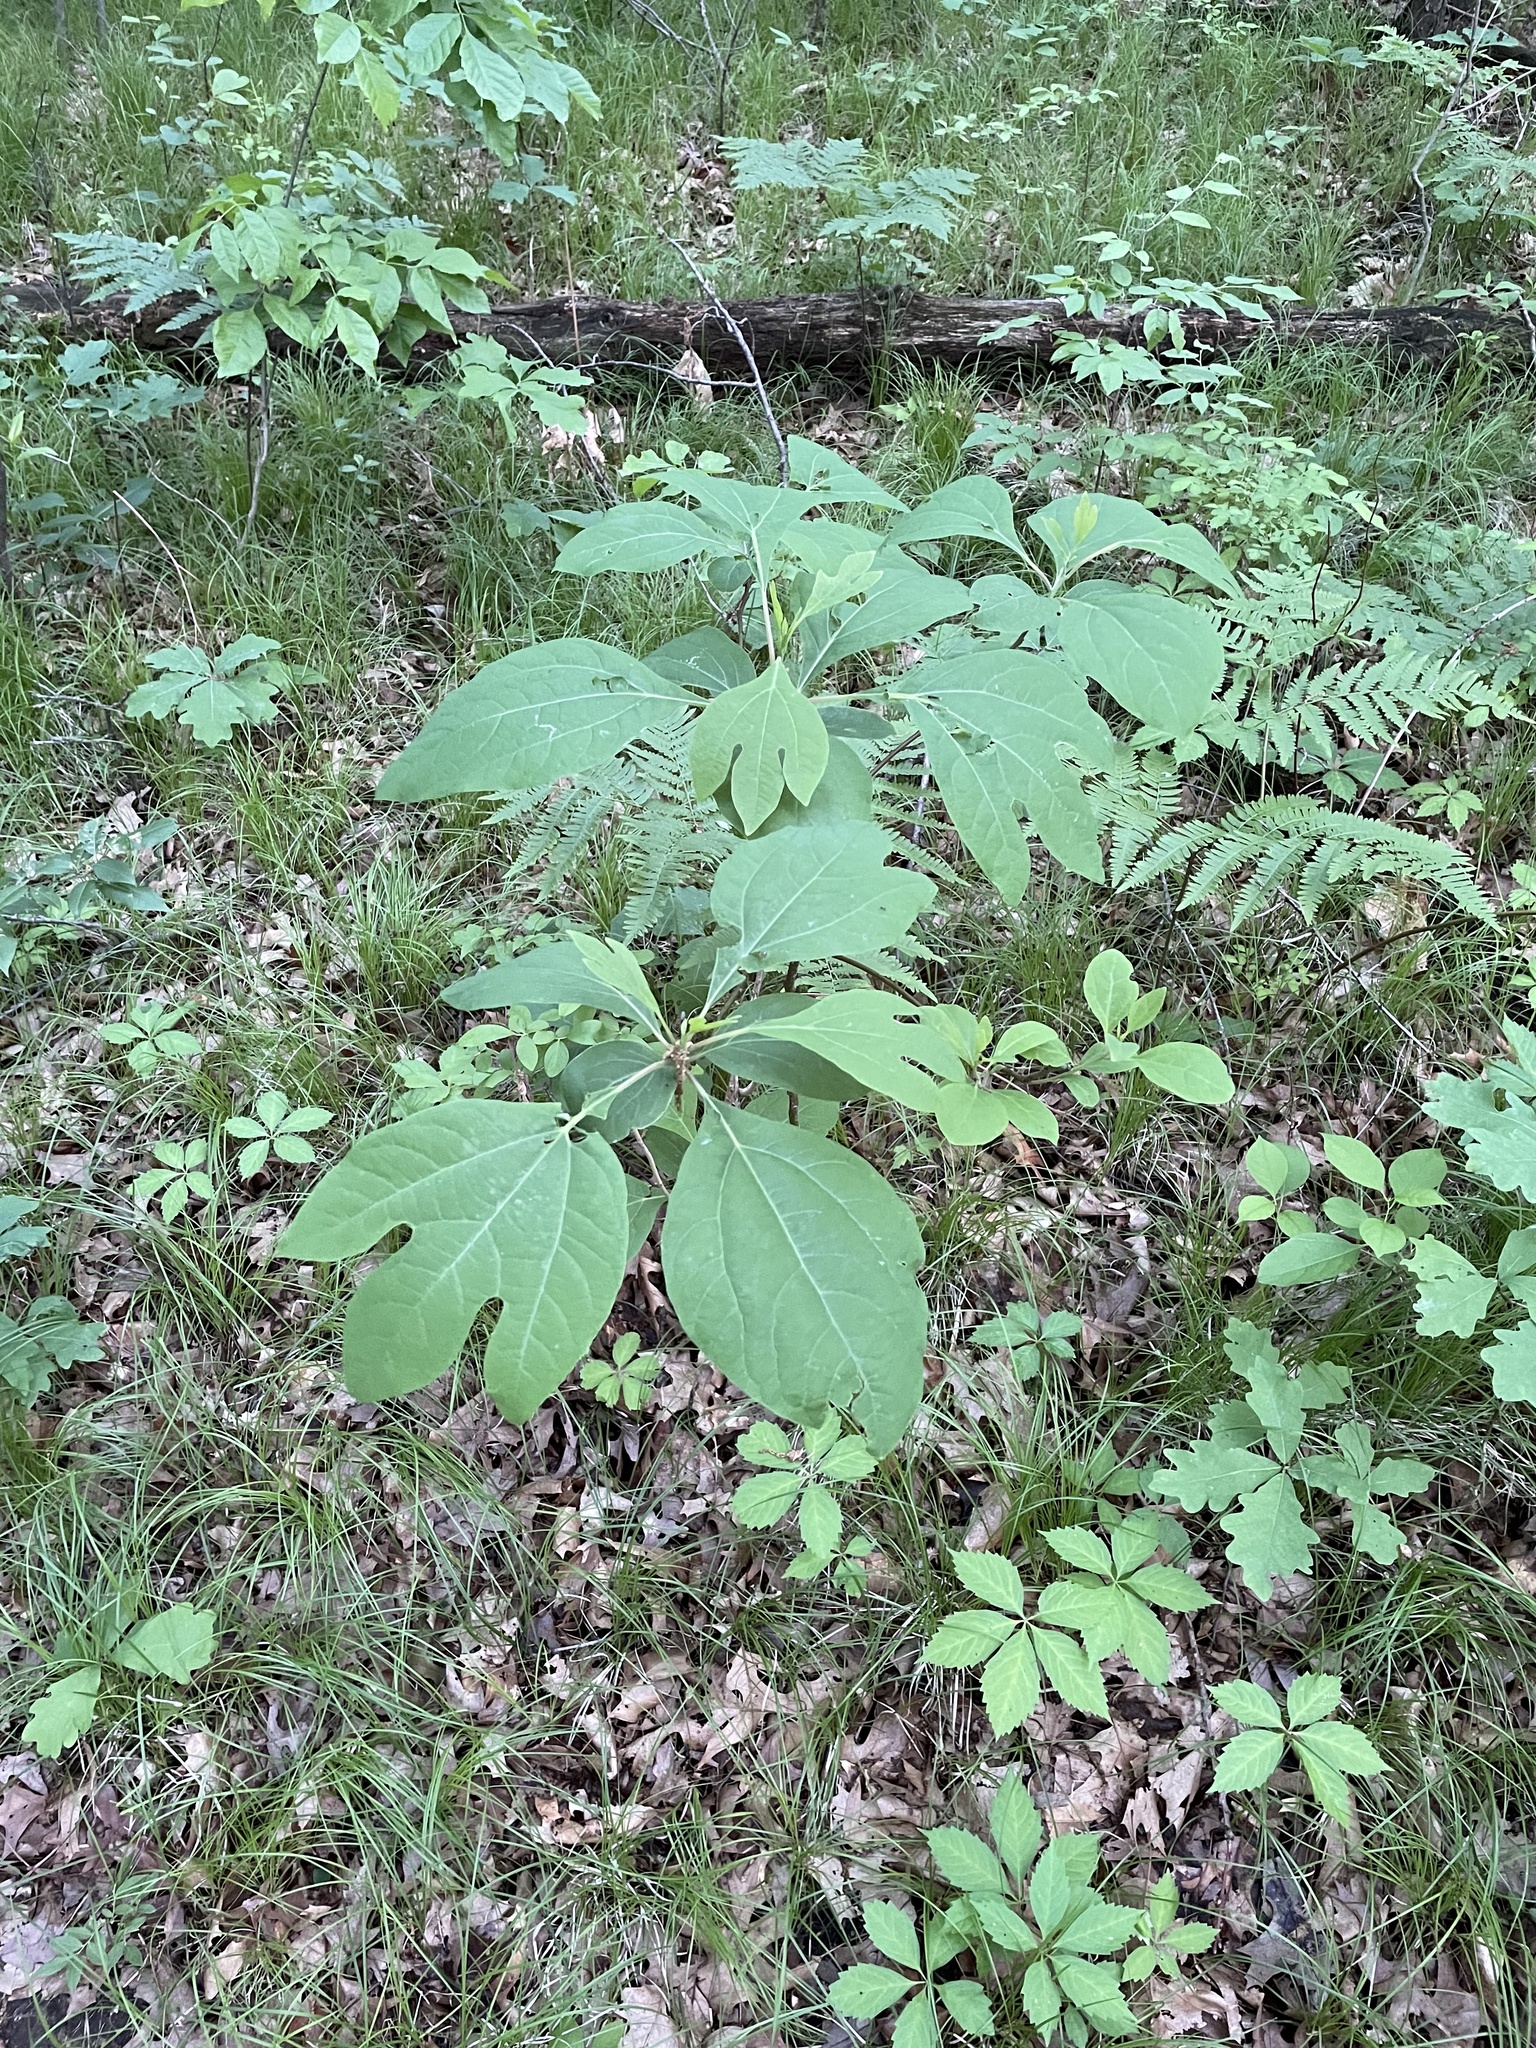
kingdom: Plantae
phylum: Tracheophyta
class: Magnoliopsida
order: Laurales
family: Lauraceae
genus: Sassafras
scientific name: Sassafras albidum
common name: Sassafras
